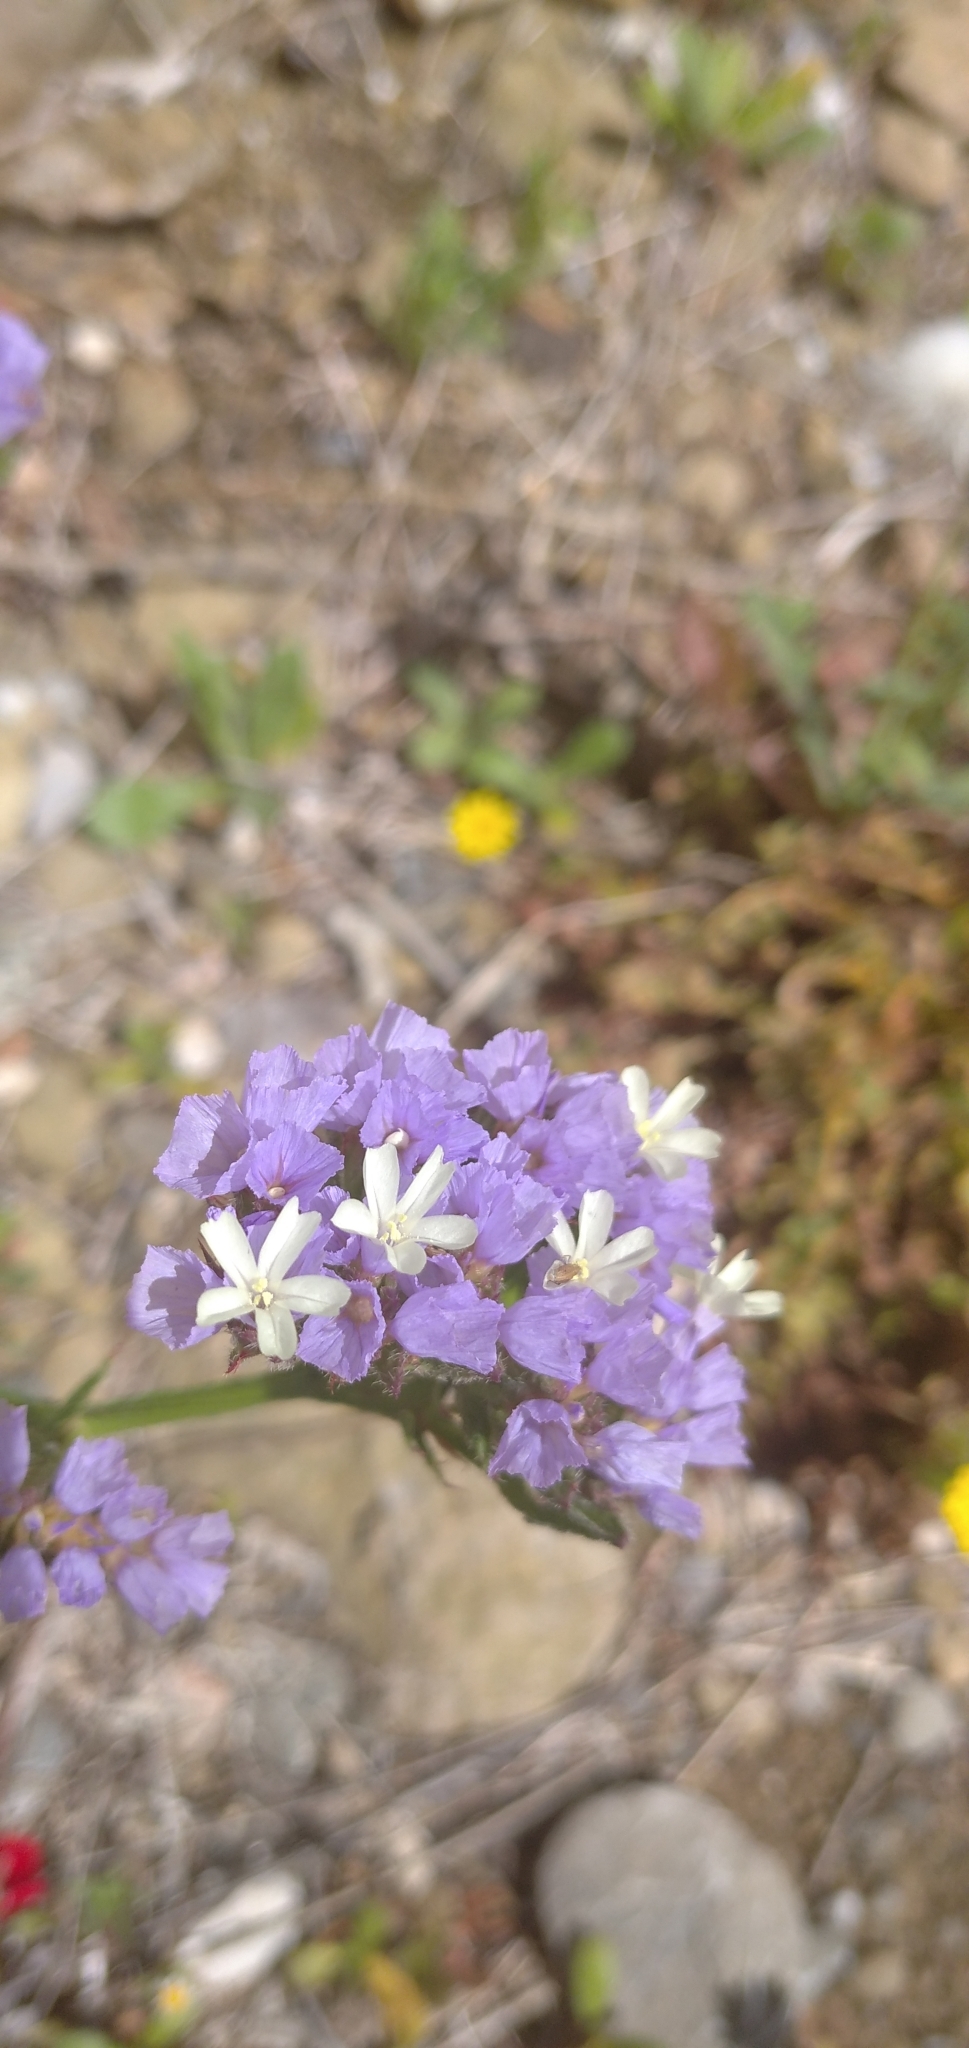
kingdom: Plantae
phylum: Tracheophyta
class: Magnoliopsida
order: Caryophyllales
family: Plumbaginaceae
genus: Limonium
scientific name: Limonium sinuatum
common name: Statice
